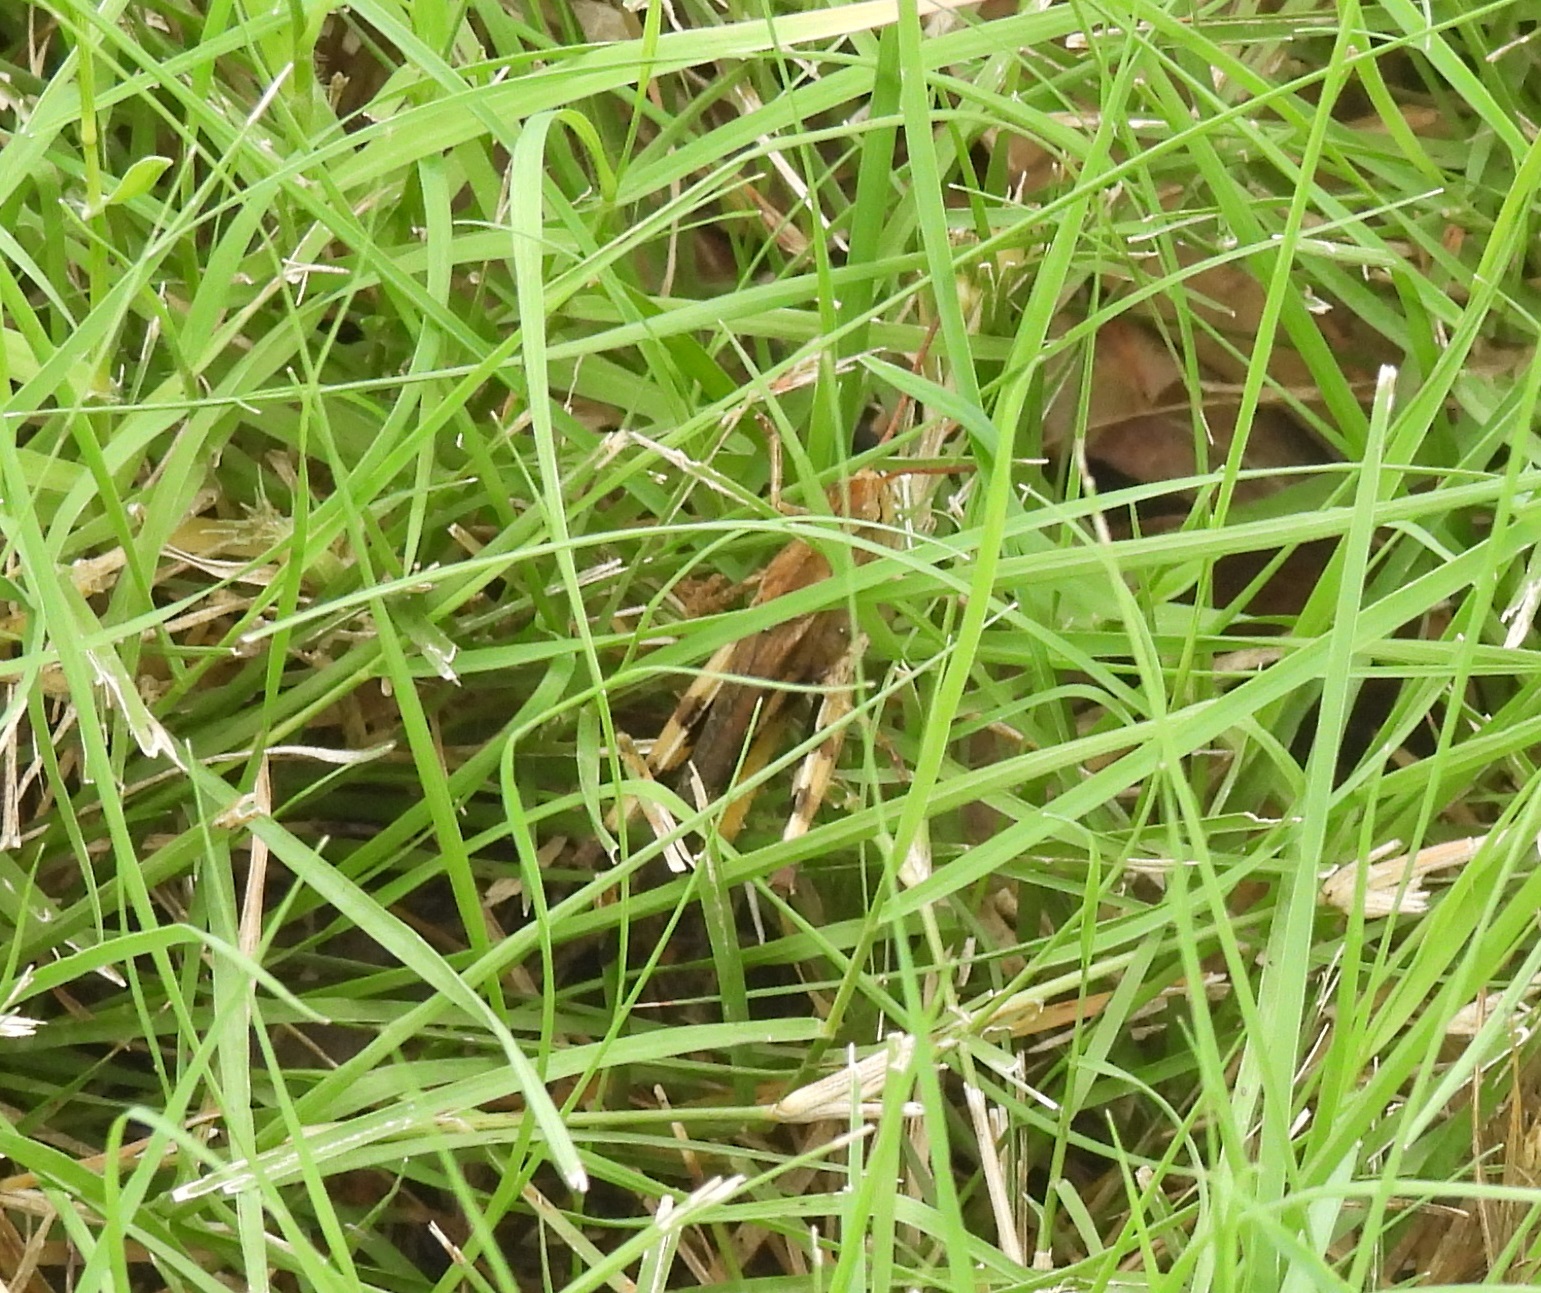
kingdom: Animalia
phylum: Arthropoda
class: Insecta
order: Orthoptera
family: Acrididae
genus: Chortophaga
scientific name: Chortophaga viridifasciata
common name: Green-striped grasshopper
